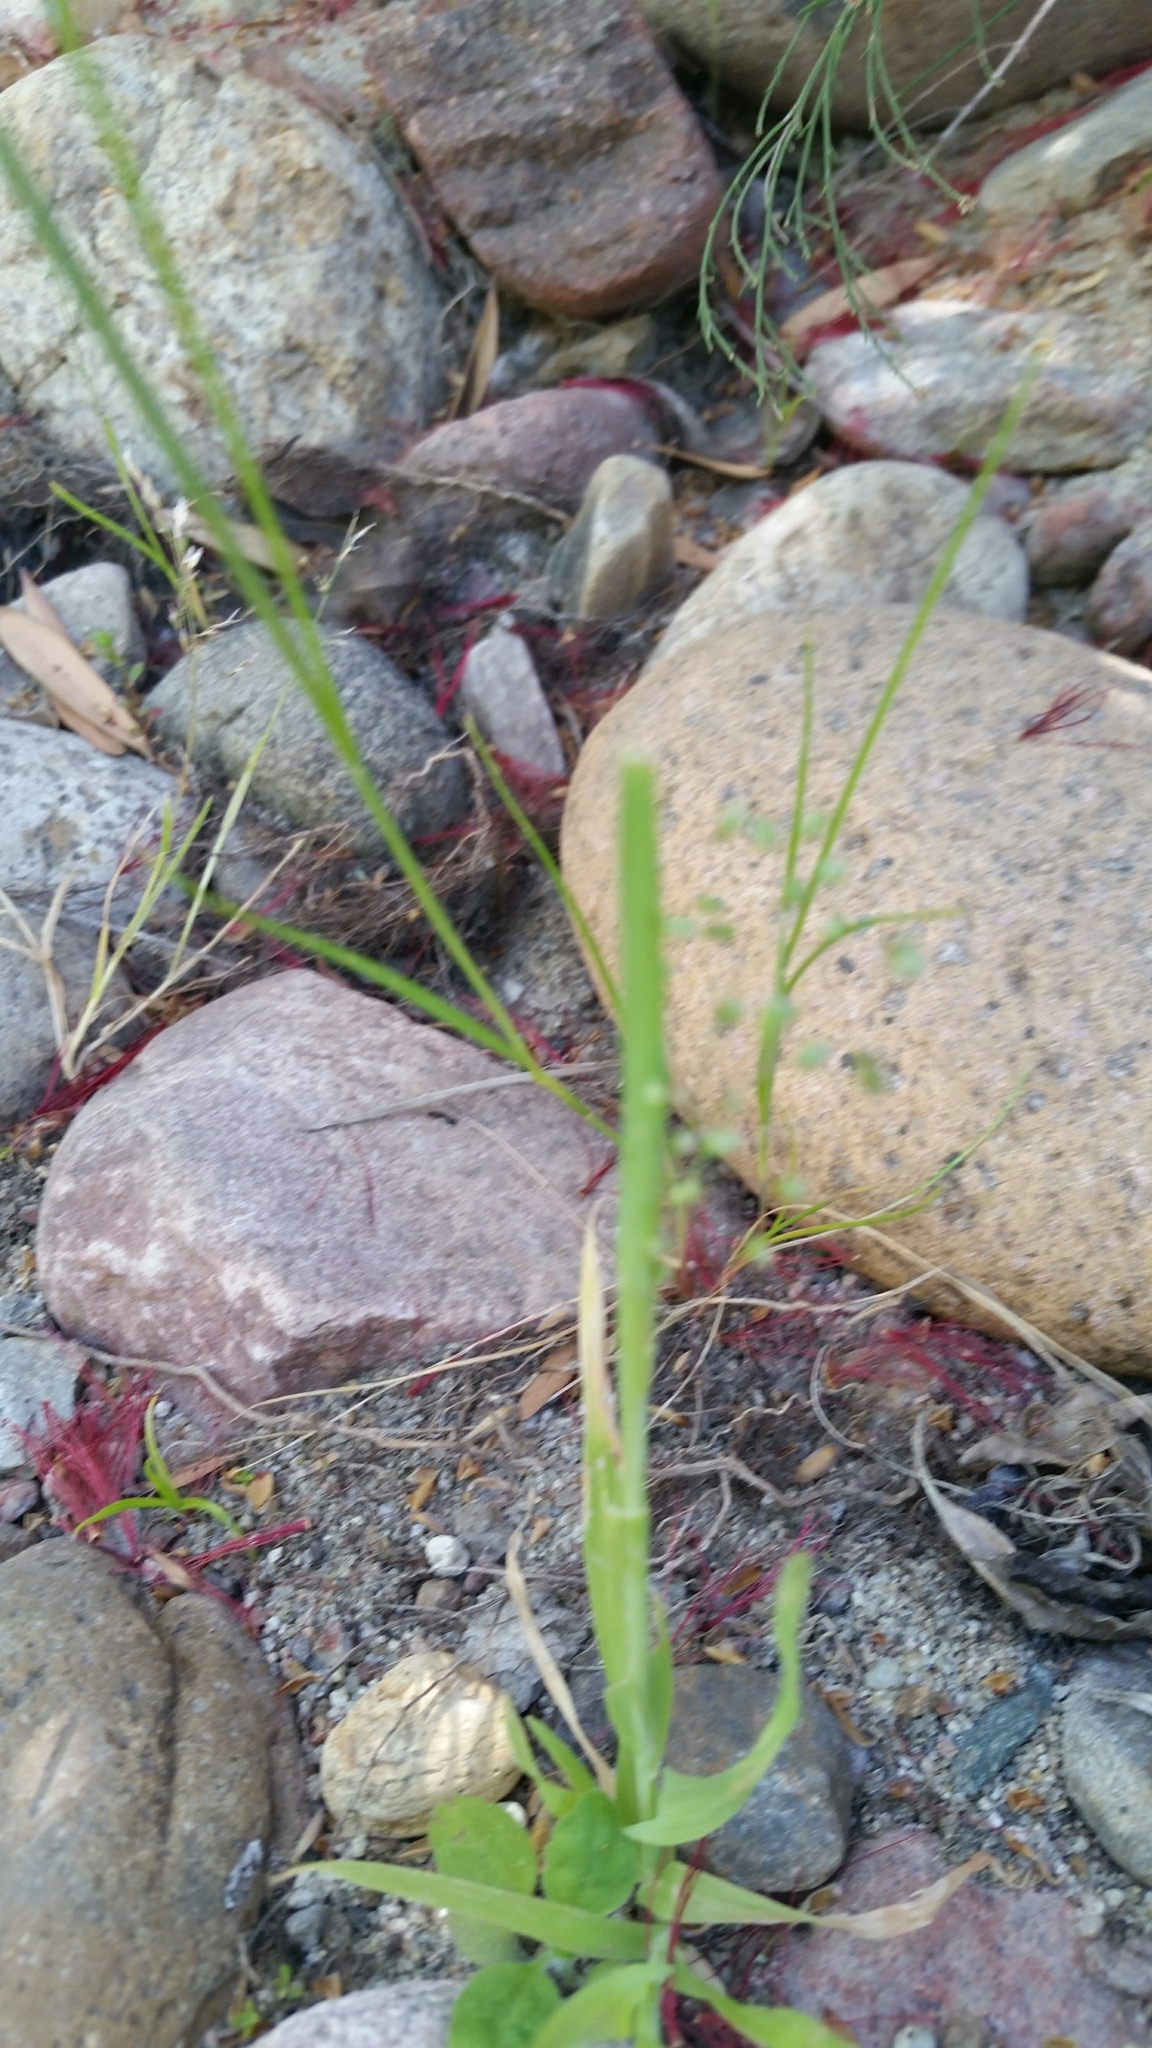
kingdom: Plantae
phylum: Tracheophyta
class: Liliopsida
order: Poales
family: Poaceae
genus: Briza
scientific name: Briza minor
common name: Lesser quaking-grass
